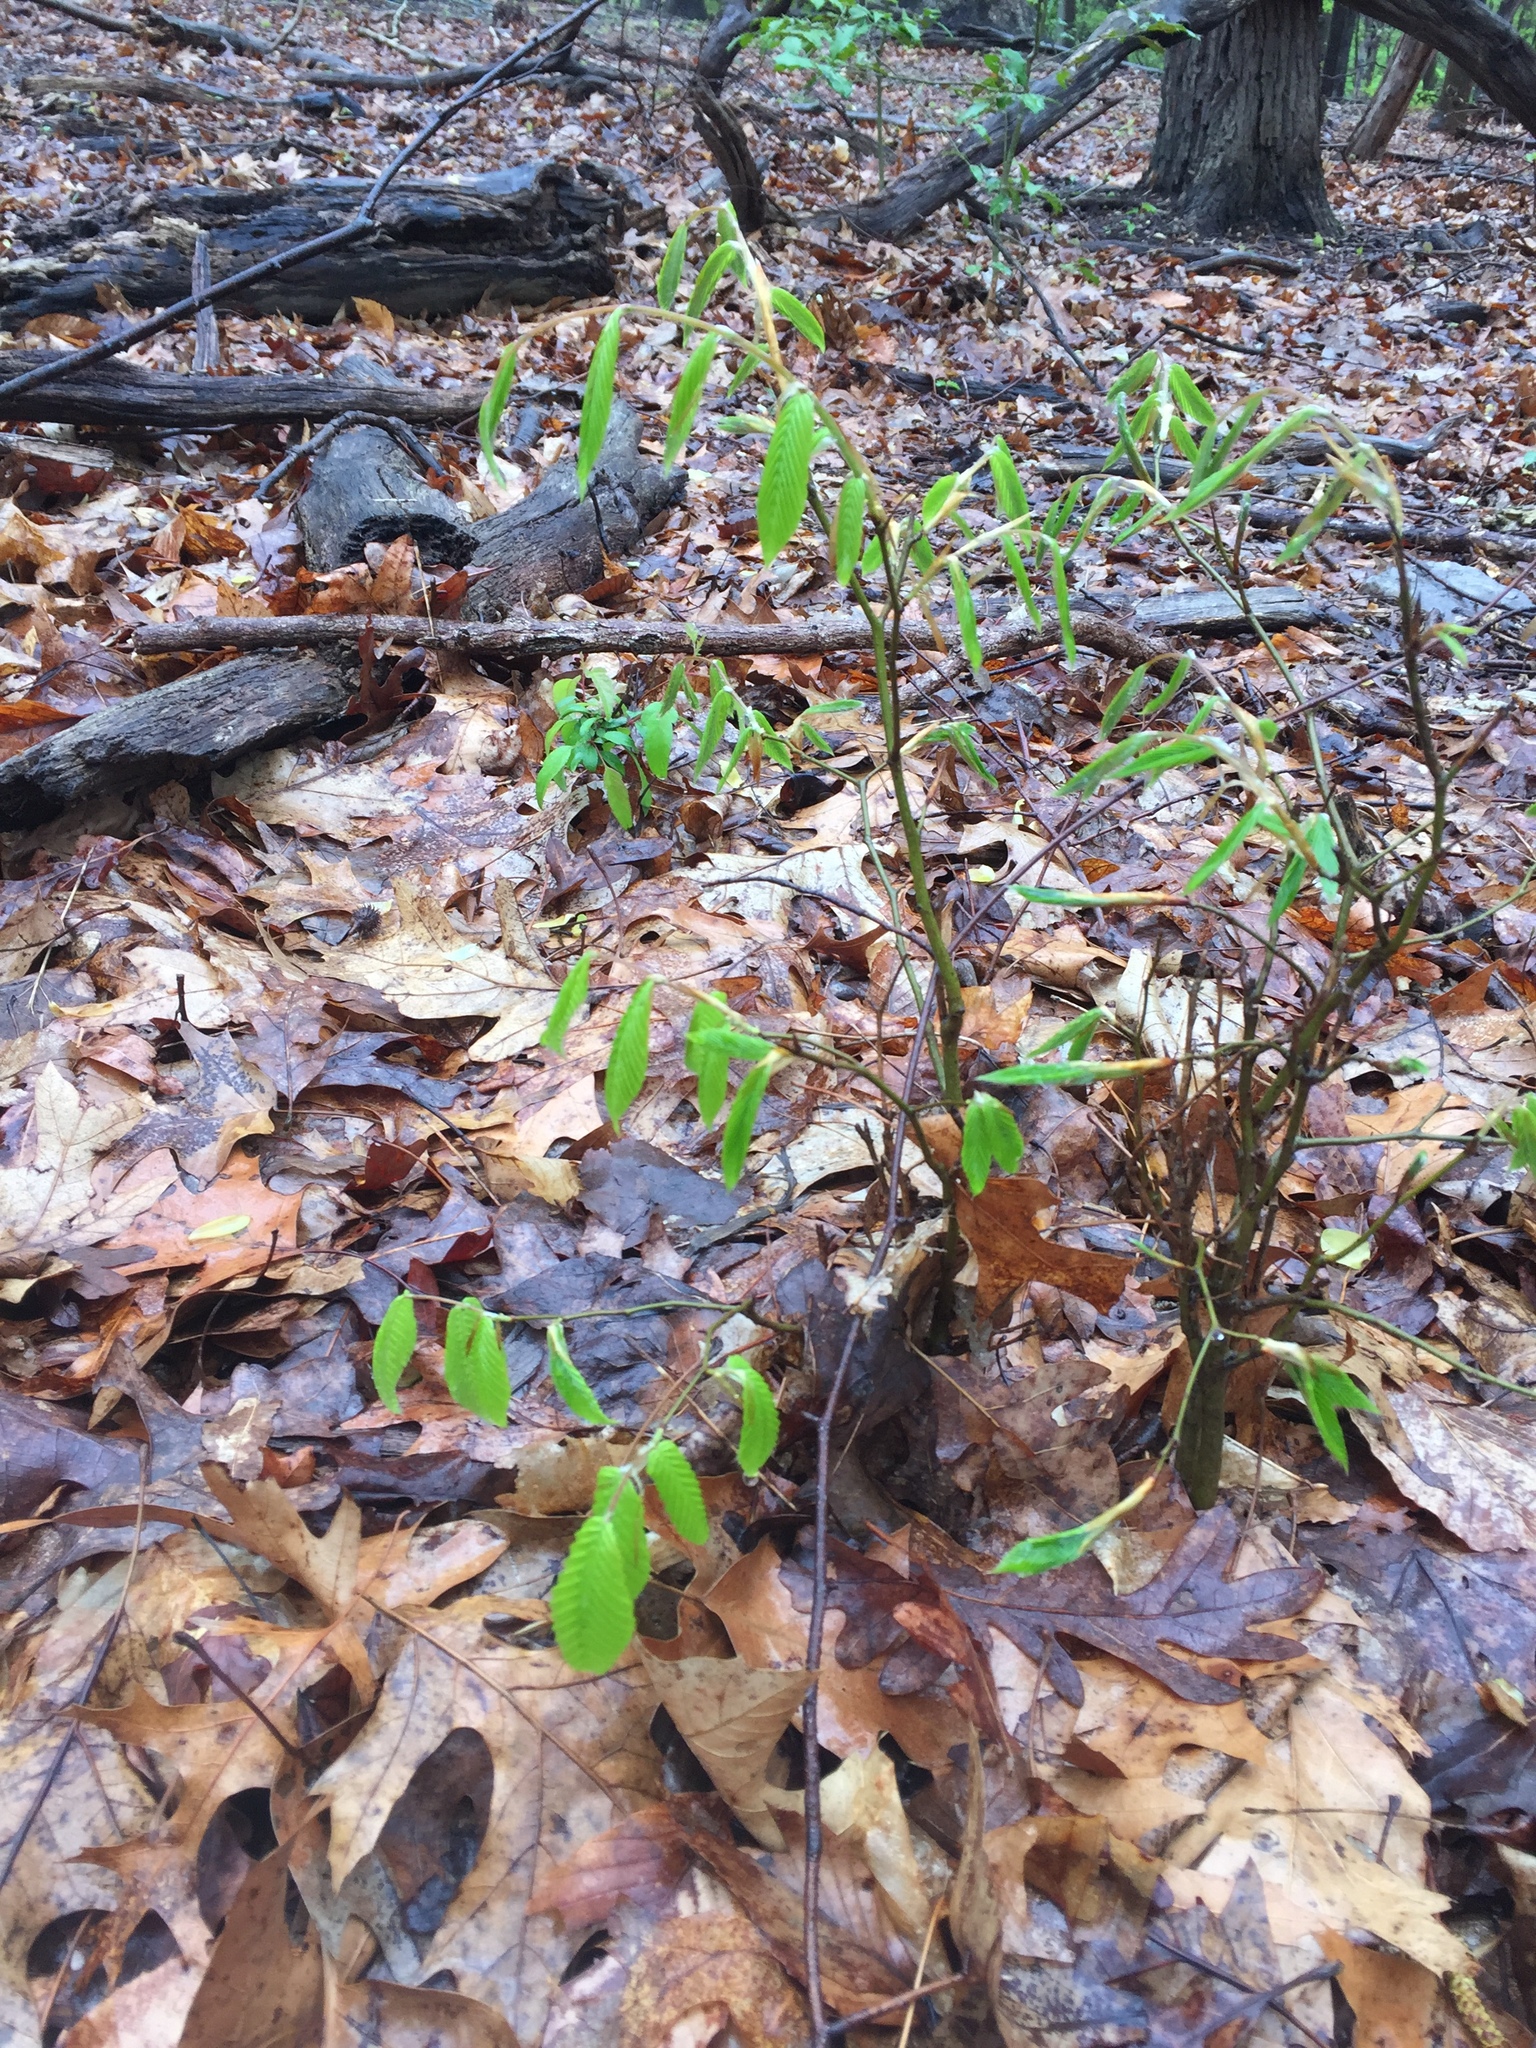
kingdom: Plantae
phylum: Tracheophyta
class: Magnoliopsida
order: Fagales
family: Fagaceae
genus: Fagus
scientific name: Fagus grandifolia
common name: American beech
